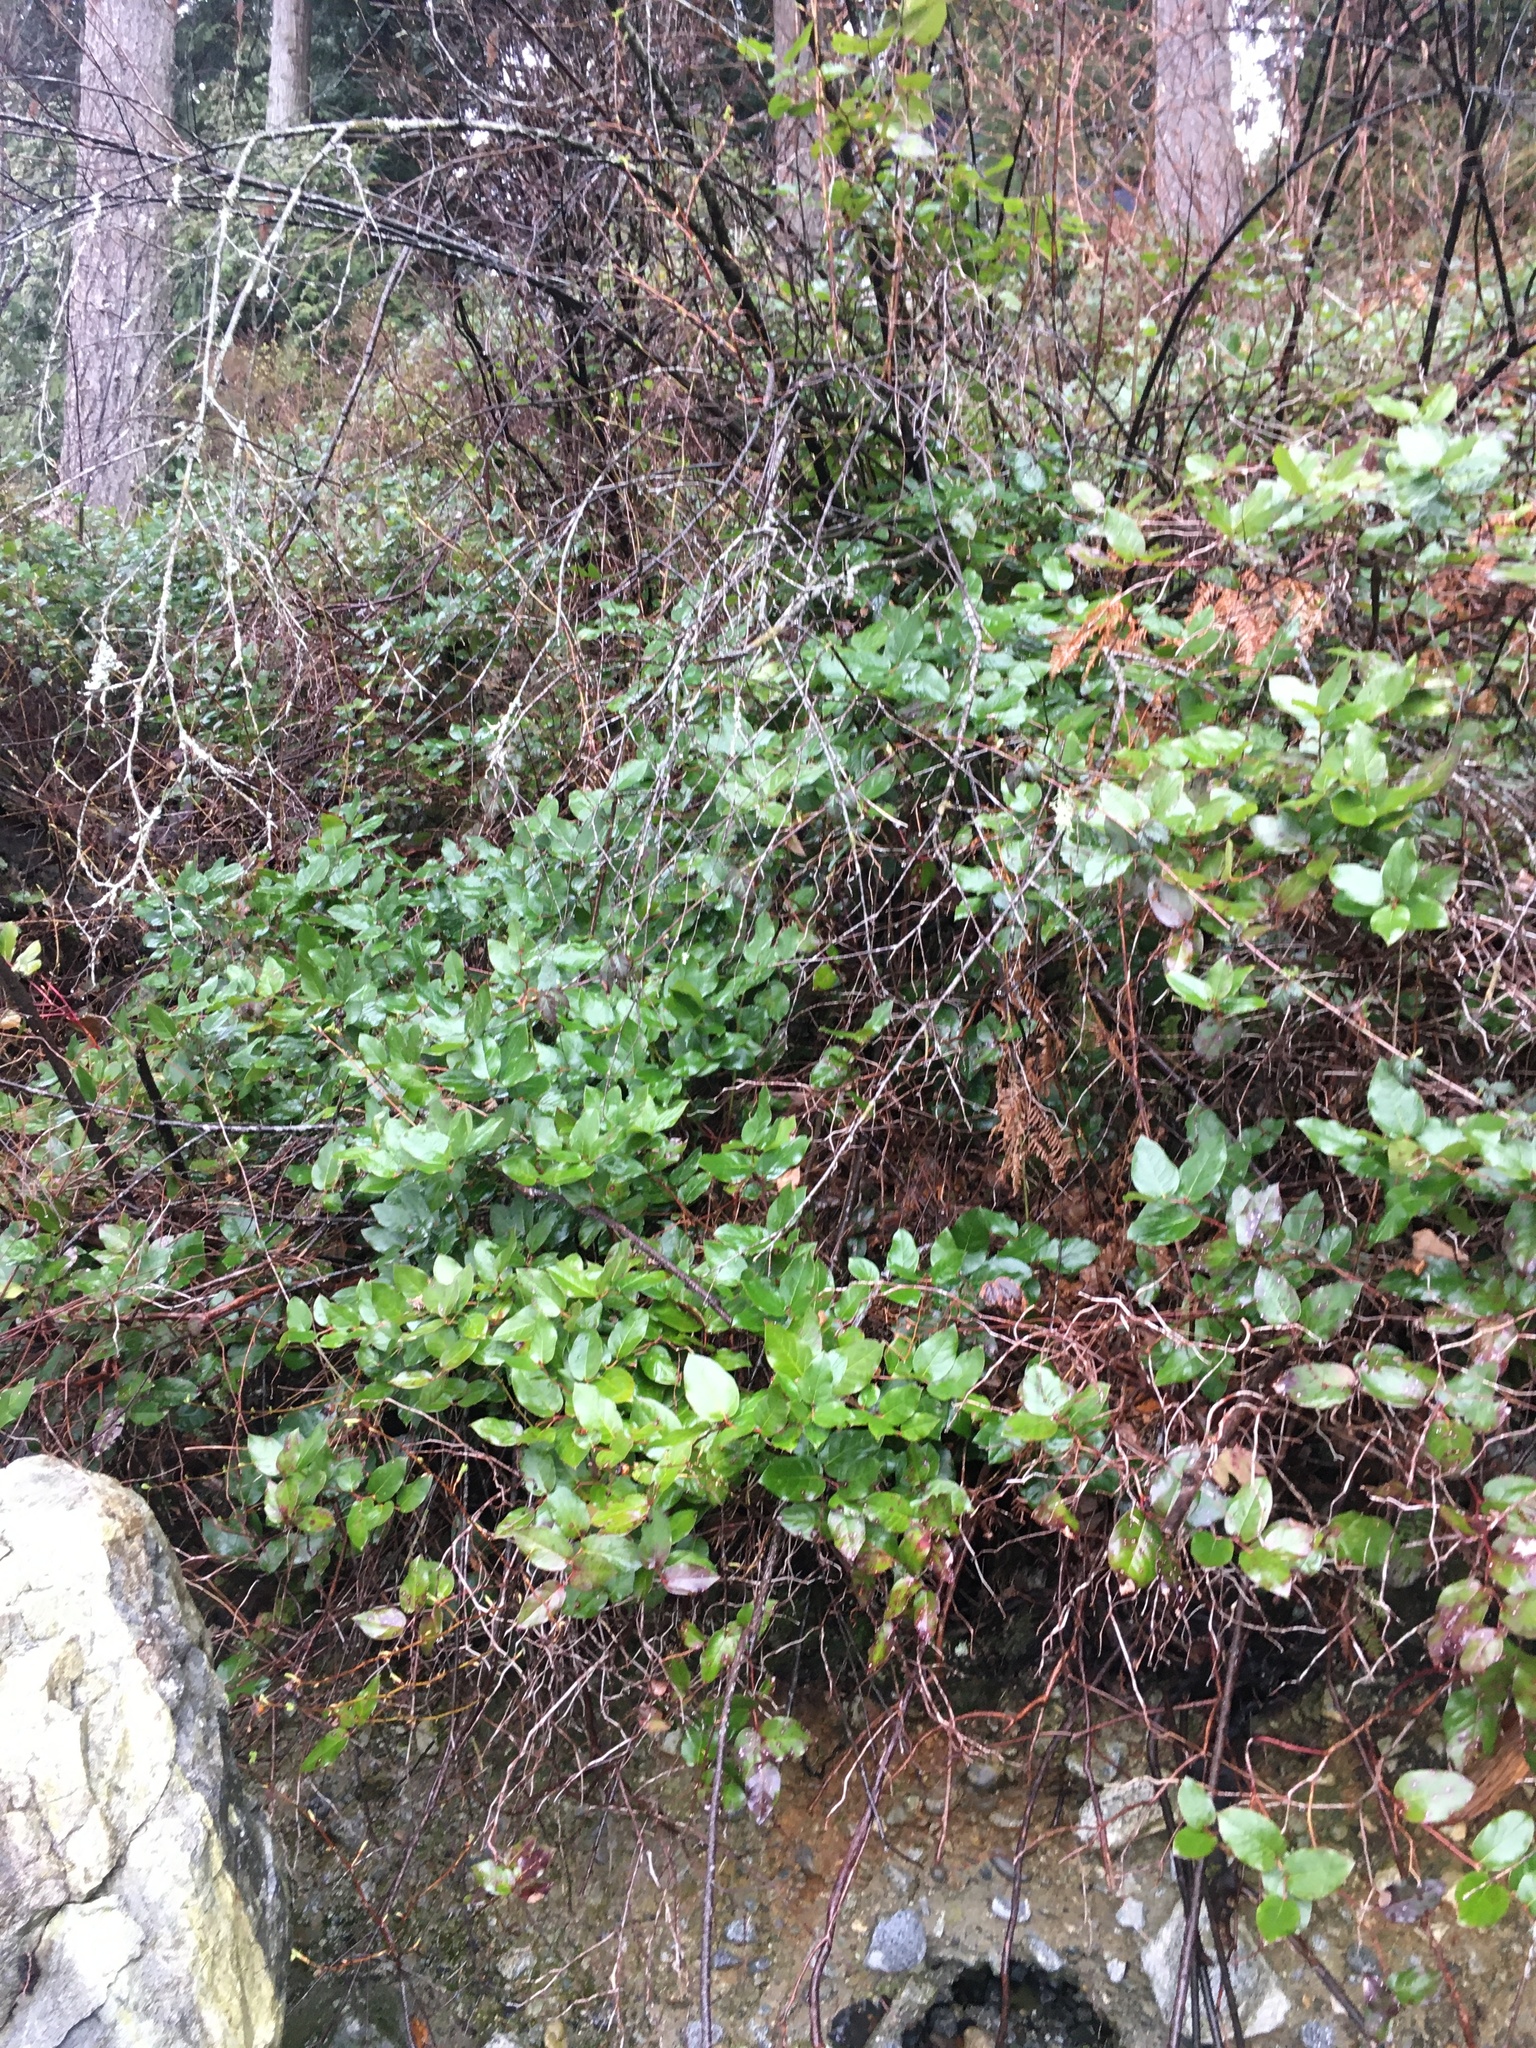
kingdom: Plantae
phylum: Tracheophyta
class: Magnoliopsida
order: Ericales
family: Ericaceae
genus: Gaultheria
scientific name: Gaultheria shallon
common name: Shallon
